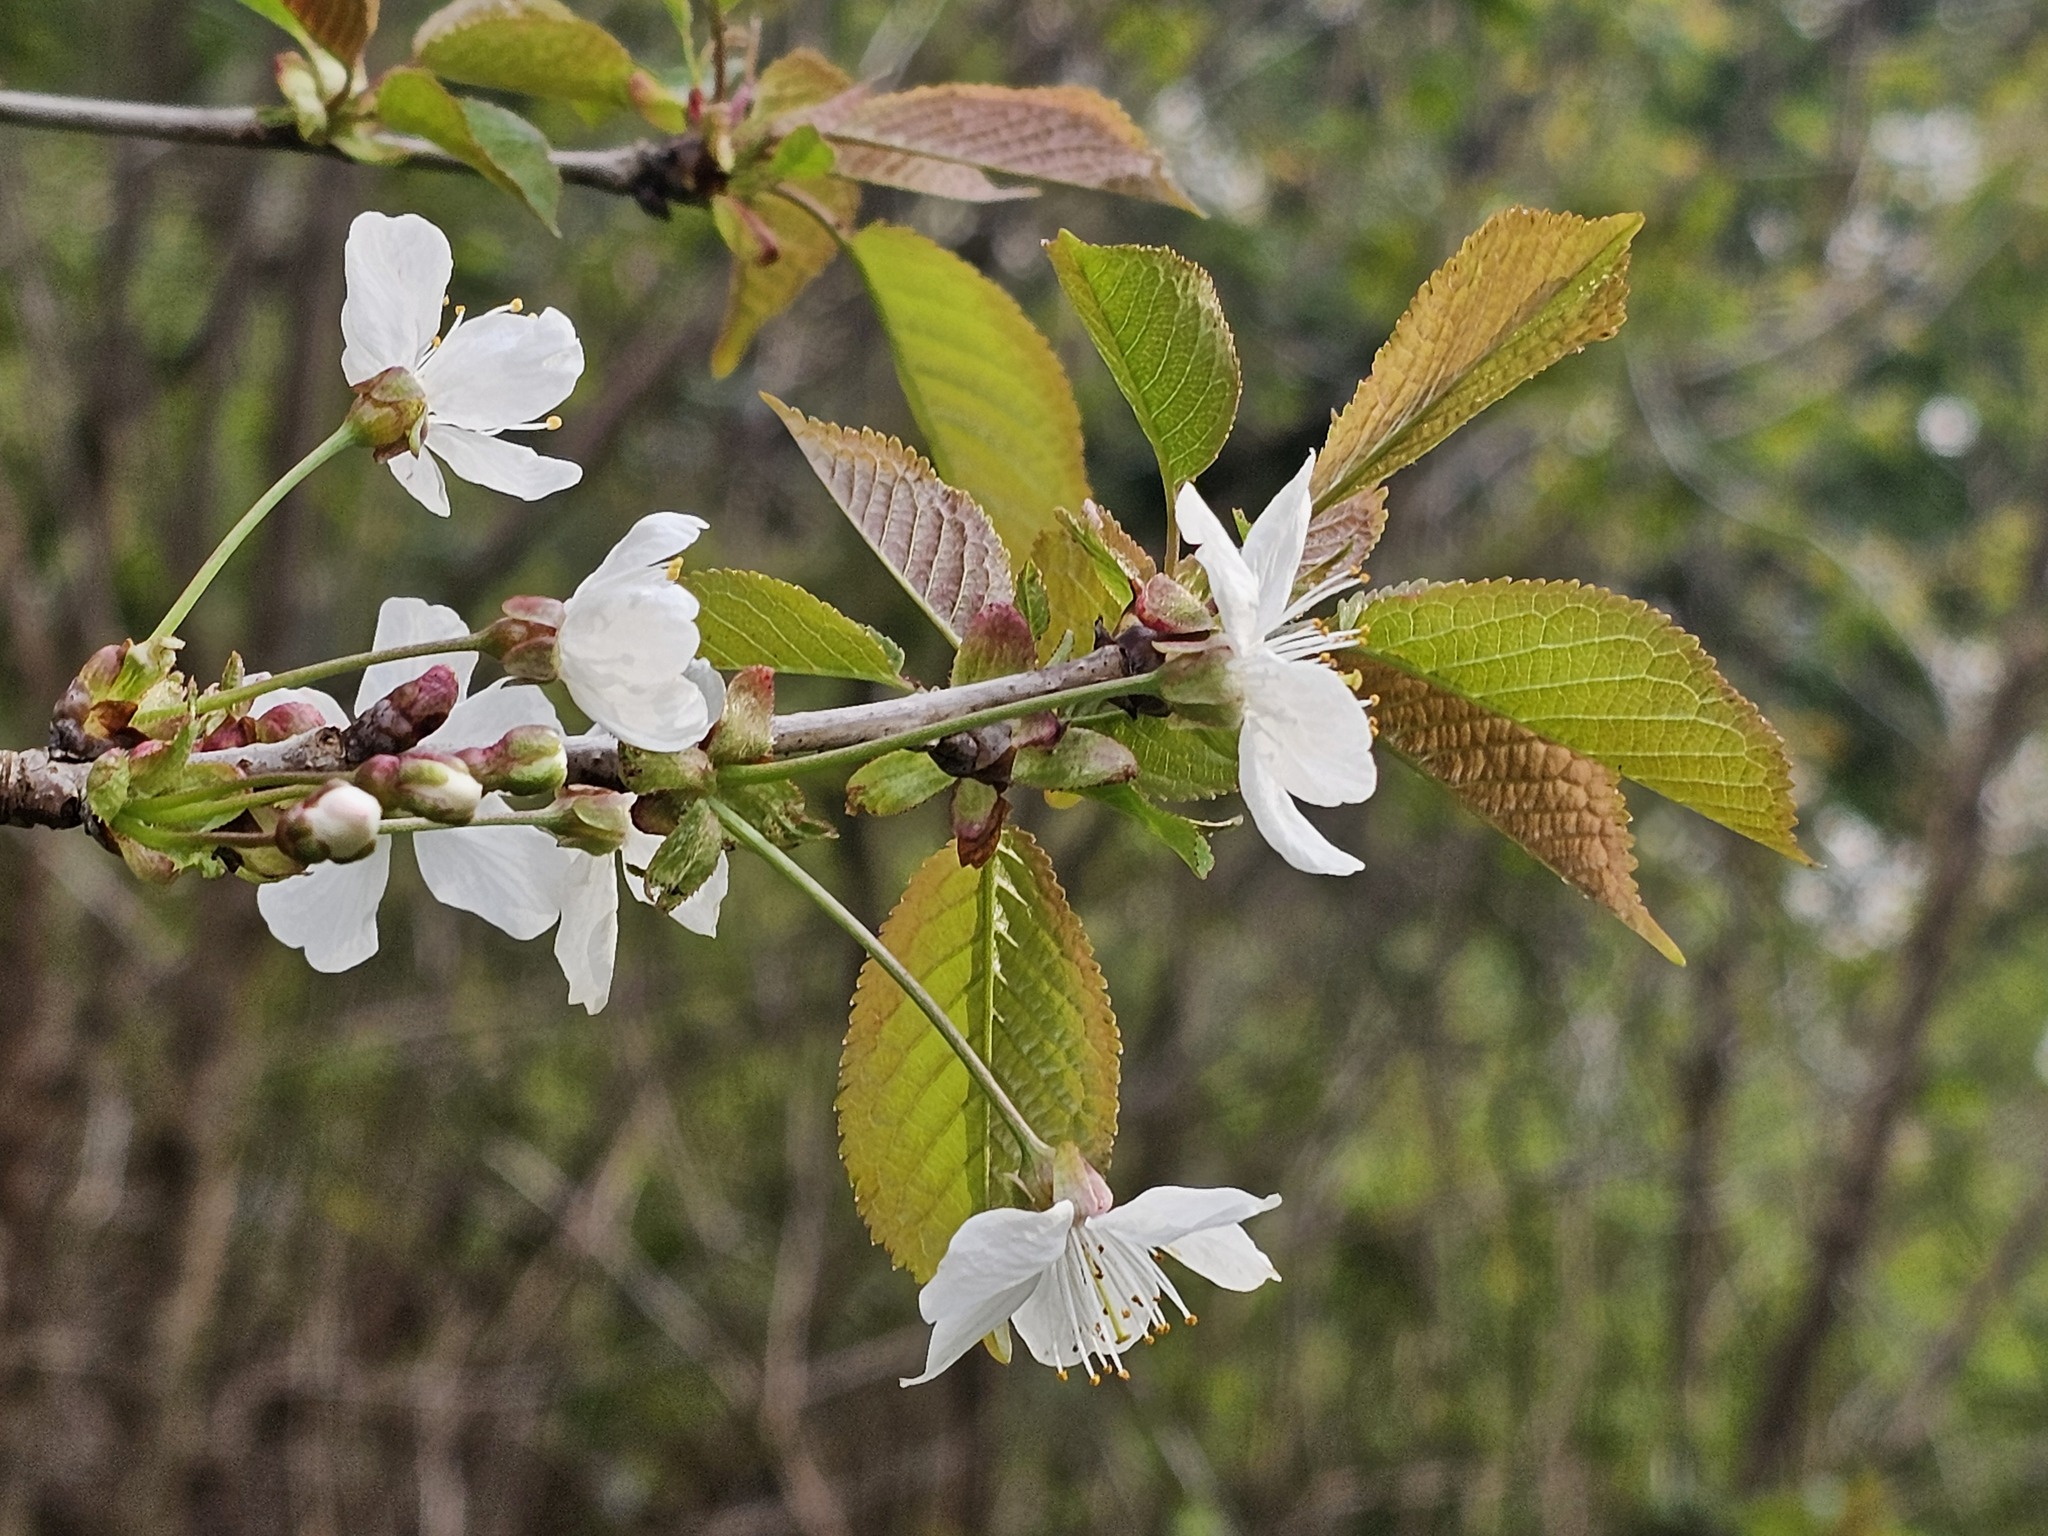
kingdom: Plantae
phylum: Tracheophyta
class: Magnoliopsida
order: Rosales
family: Rosaceae
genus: Prunus
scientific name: Prunus avium
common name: Sweet cherry
